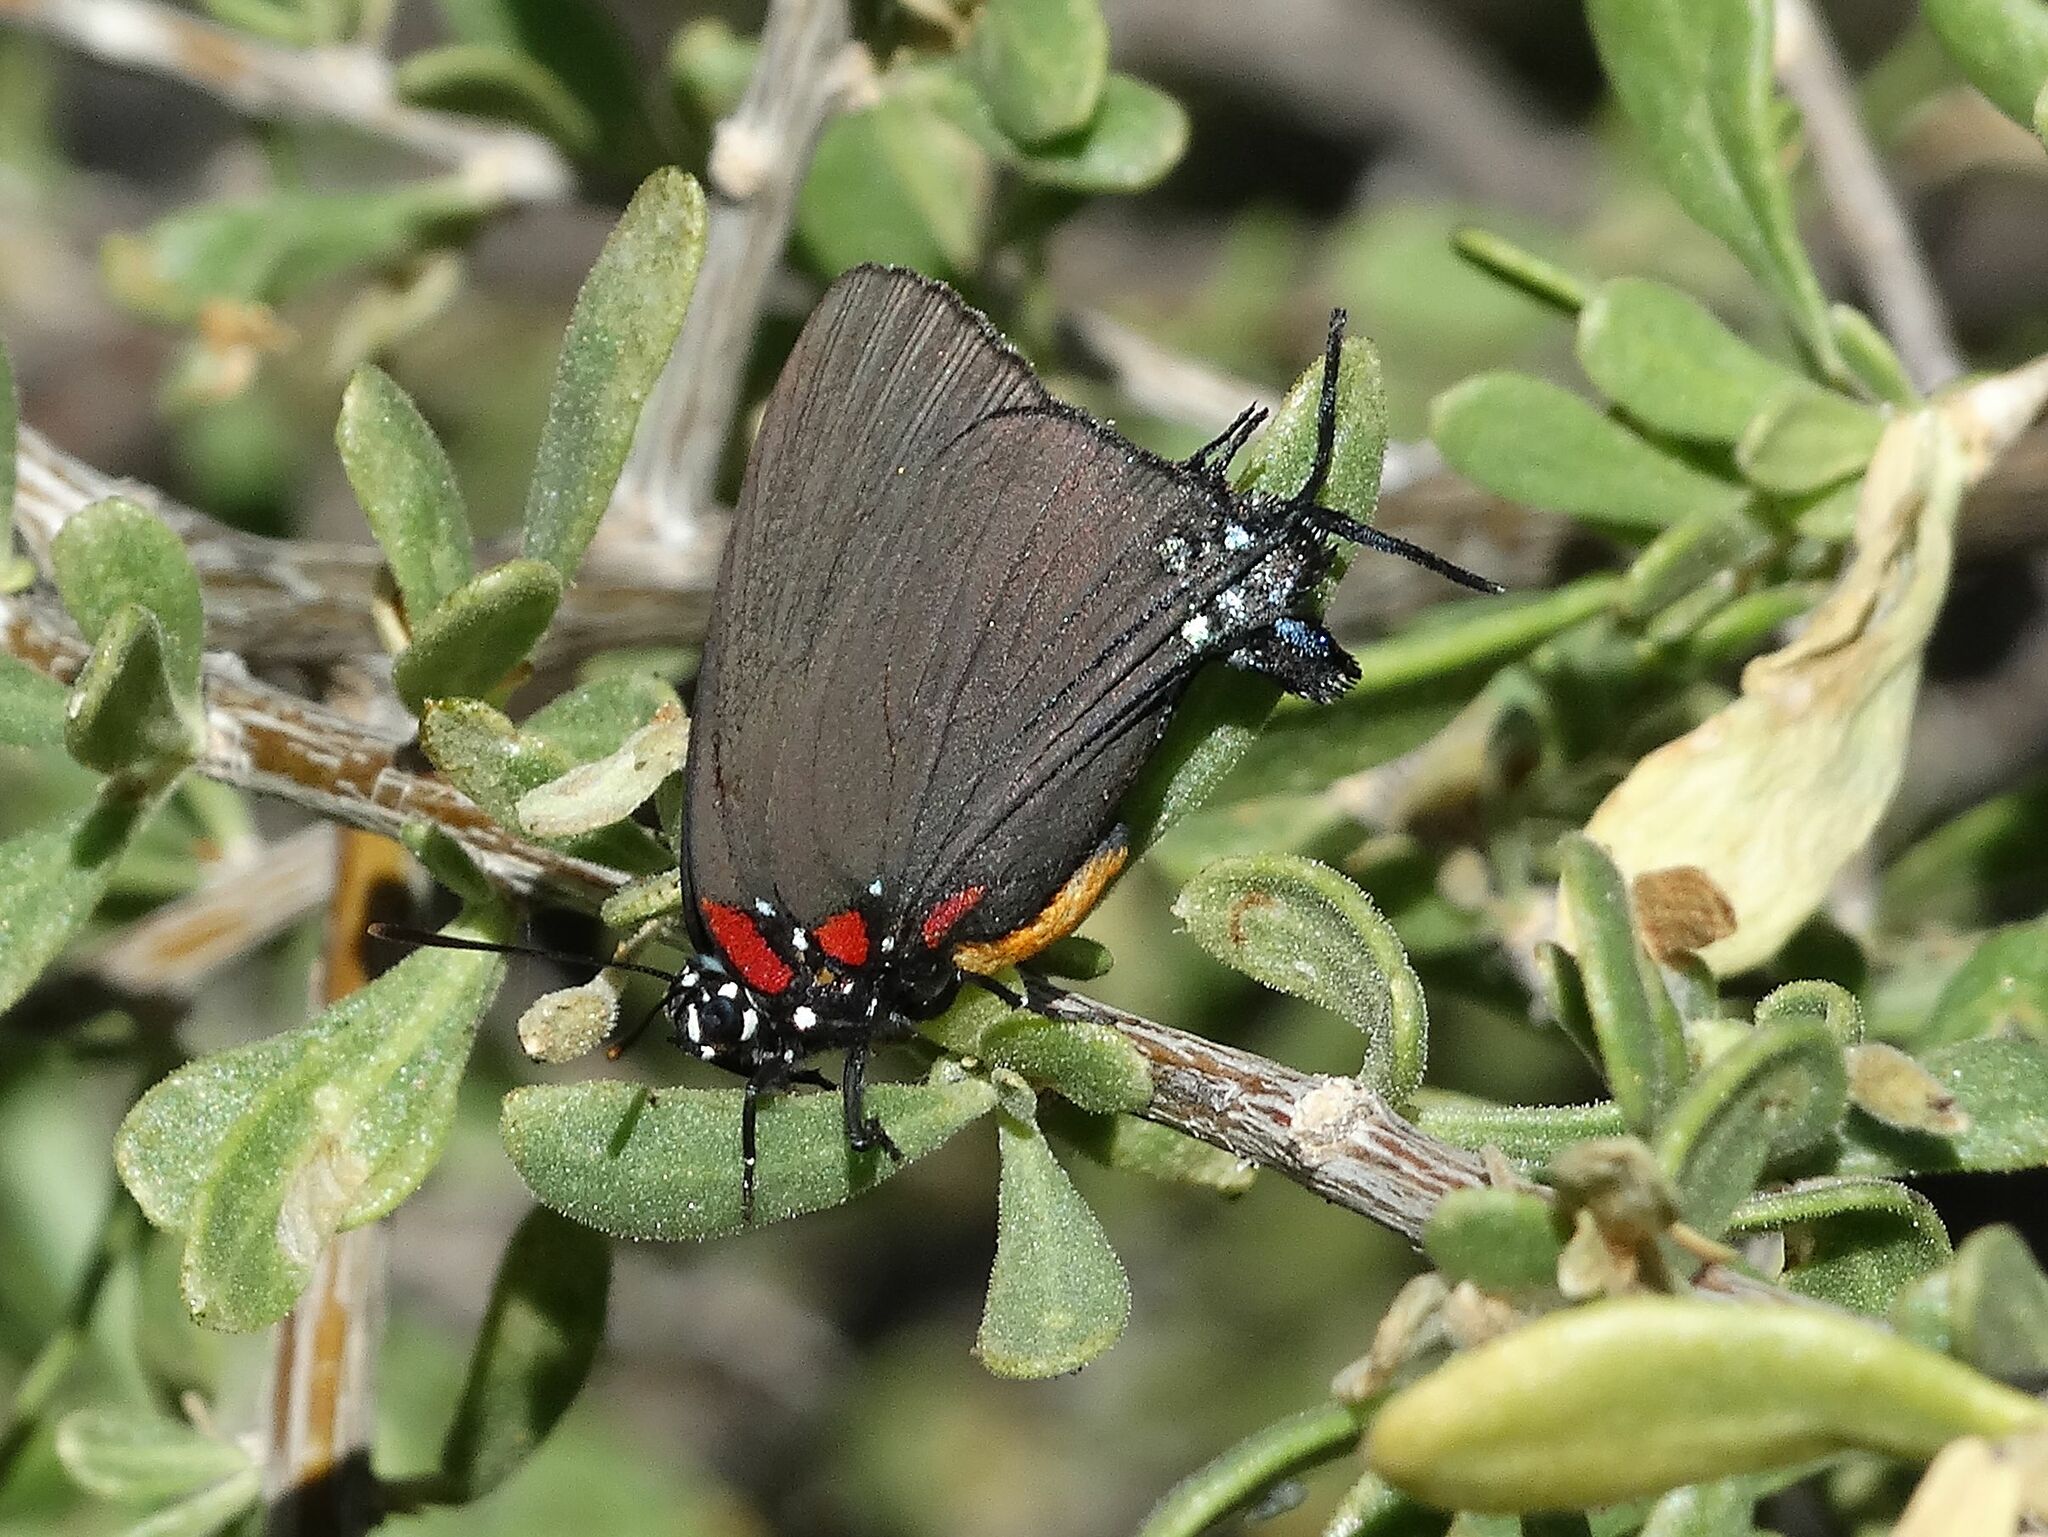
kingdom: Animalia
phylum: Arthropoda
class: Insecta
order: Lepidoptera
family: Lycaenidae
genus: Atlides
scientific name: Atlides halesus
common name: Great purple hairstreak
